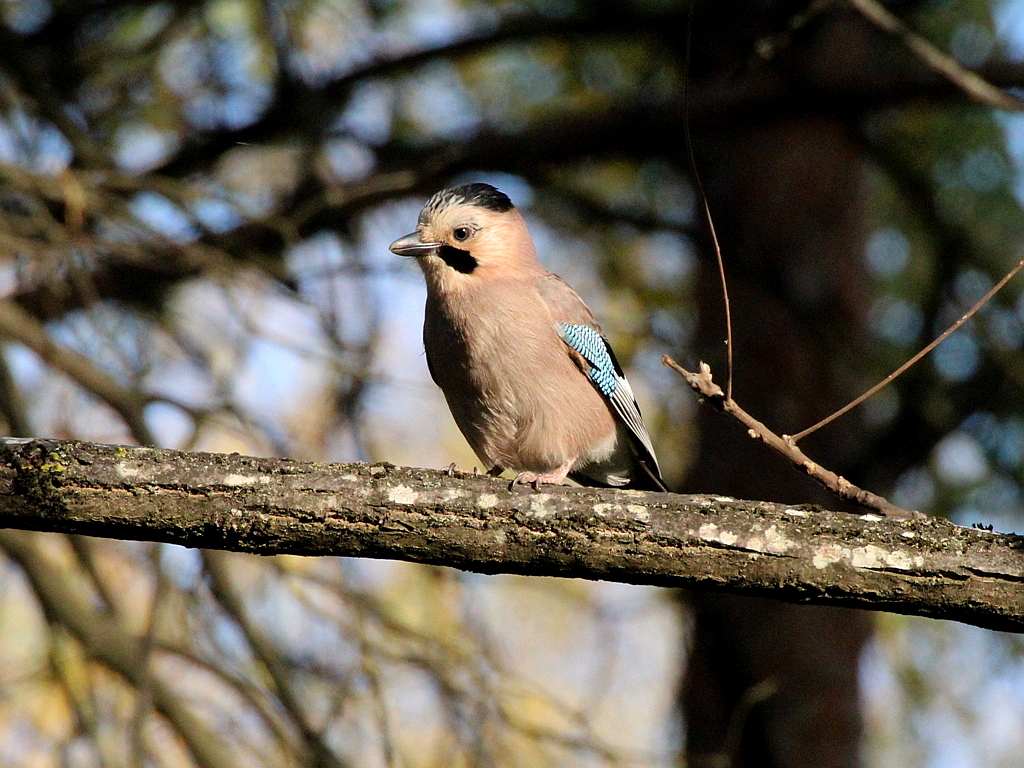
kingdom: Animalia
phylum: Chordata
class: Aves
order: Passeriformes
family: Corvidae
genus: Garrulus
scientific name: Garrulus glandarius
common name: Eurasian jay
